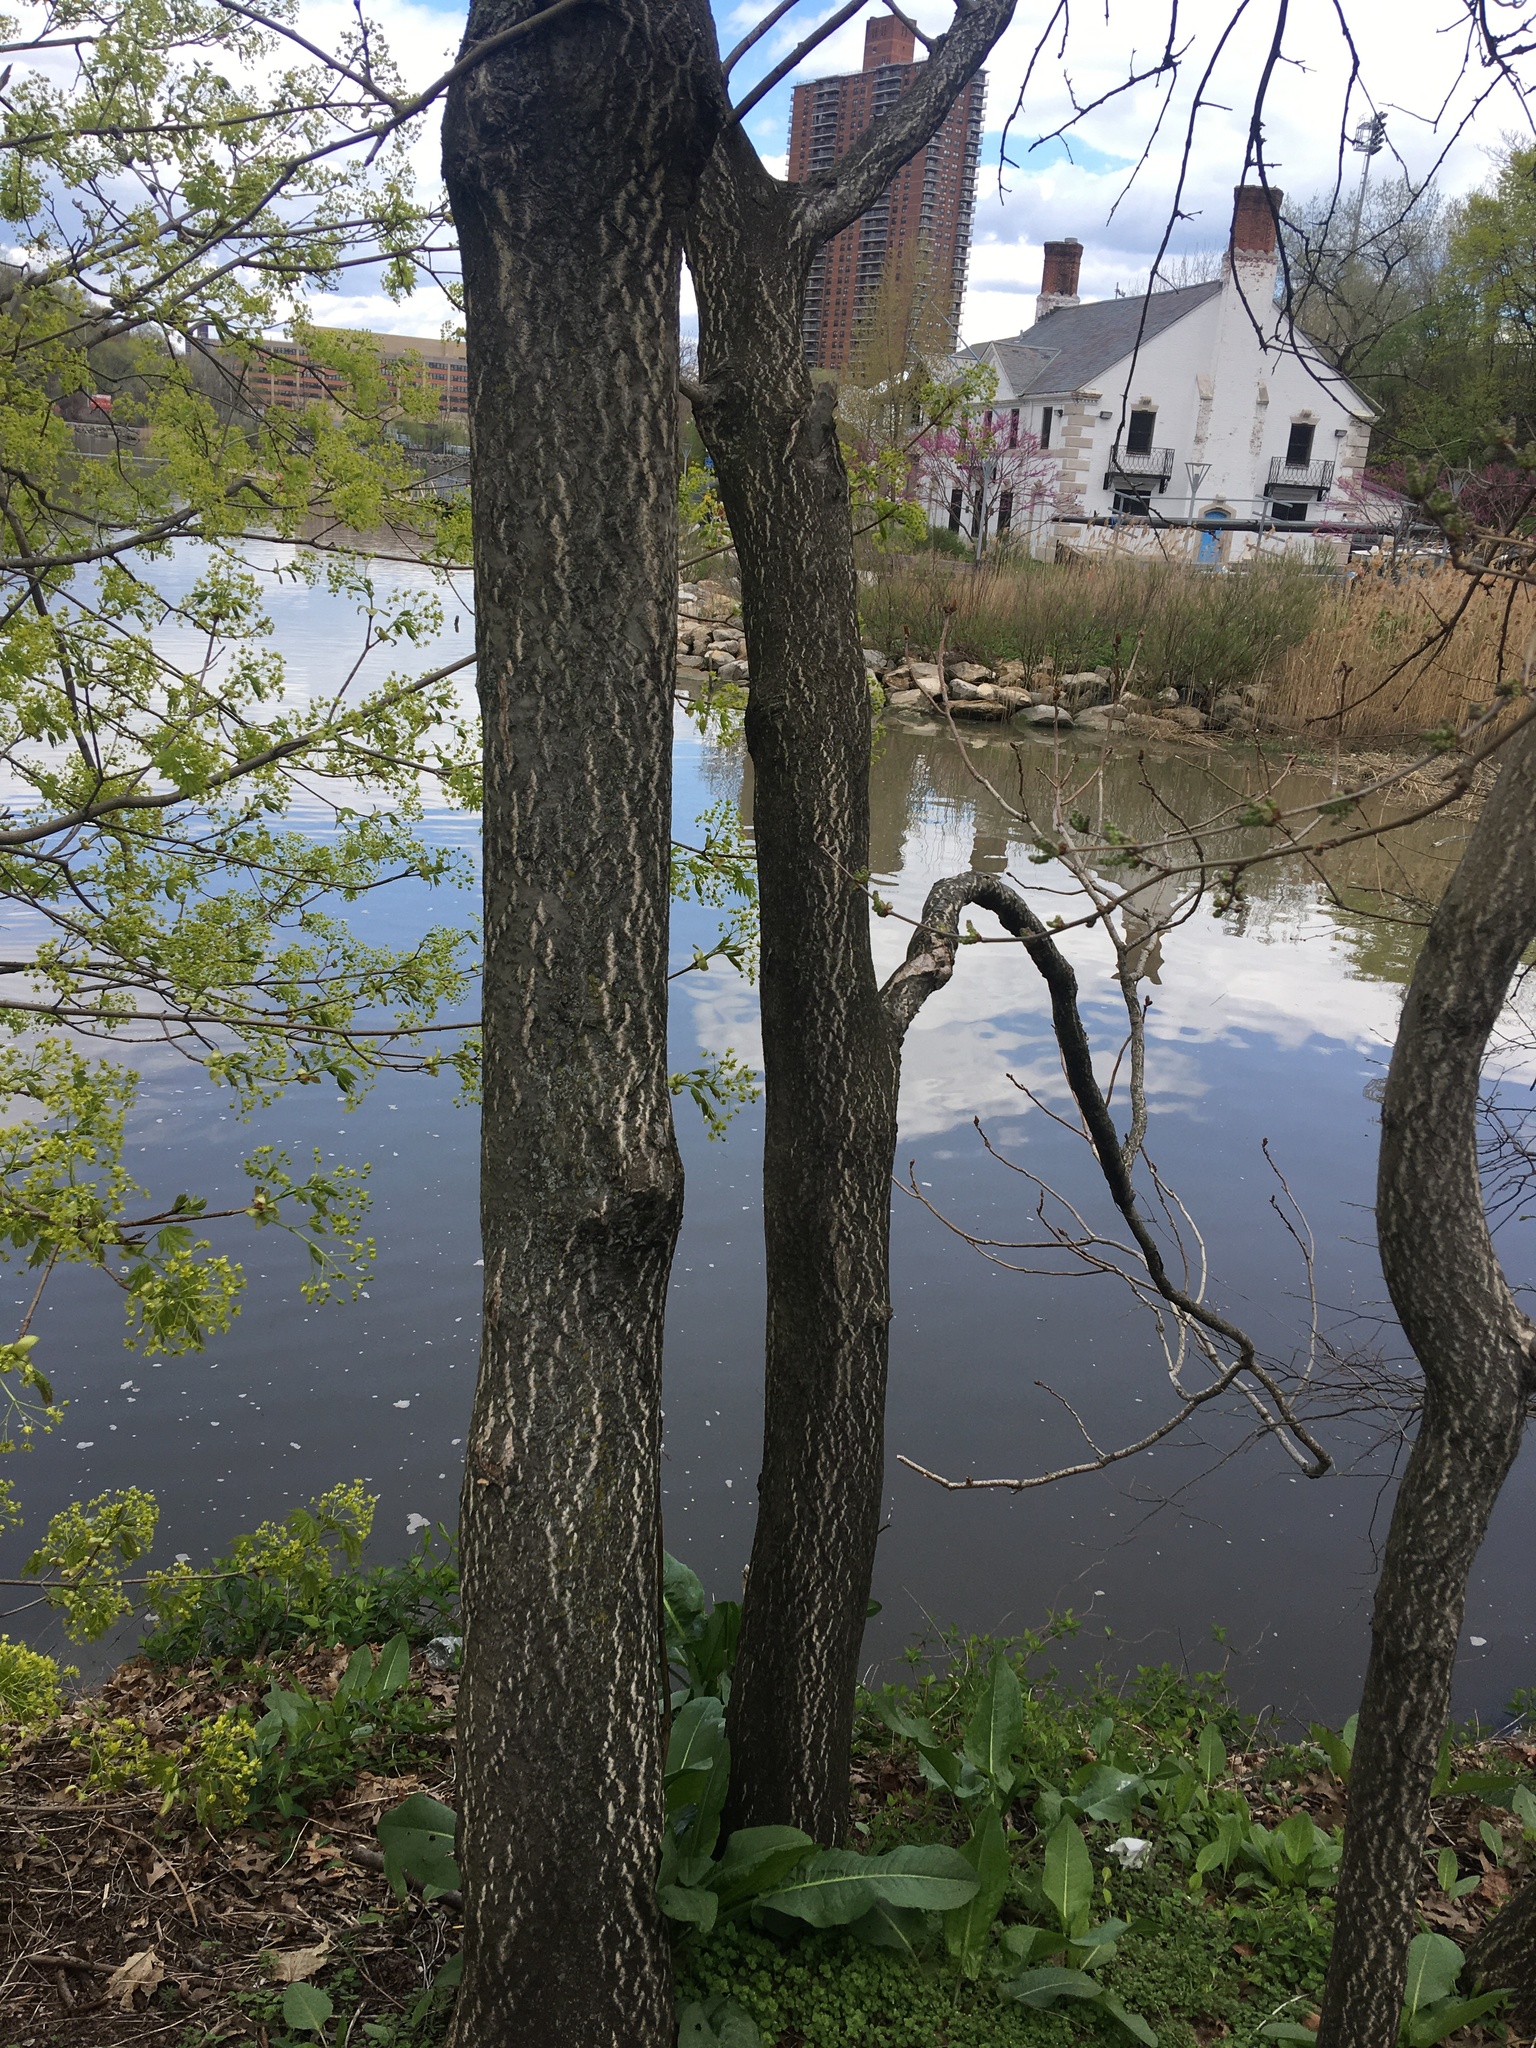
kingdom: Plantae
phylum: Tracheophyta
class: Magnoliopsida
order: Sapindales
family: Simaroubaceae
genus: Ailanthus
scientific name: Ailanthus altissima
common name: Tree-of-heaven
